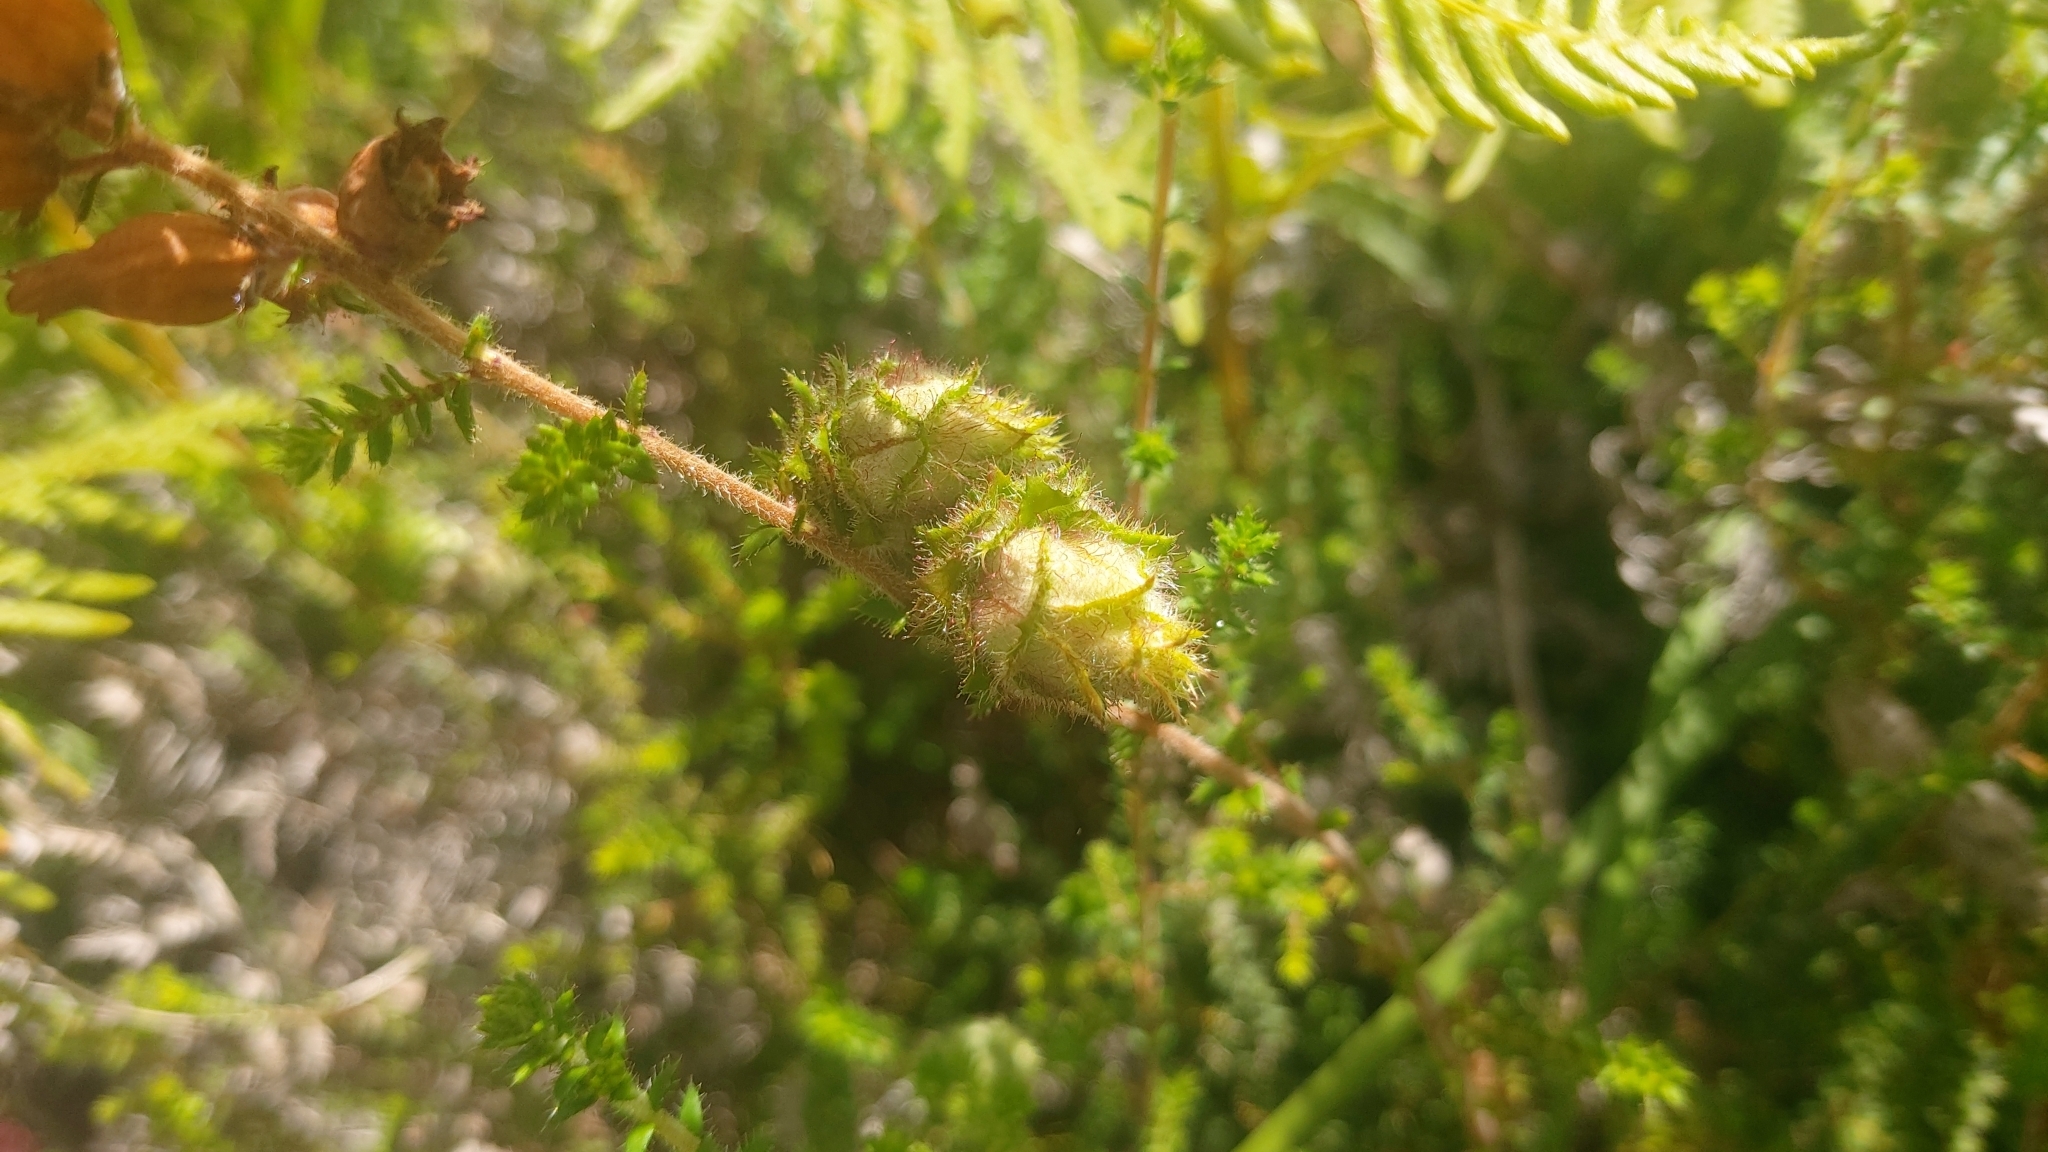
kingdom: Animalia
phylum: Arthropoda
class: Insecta
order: Diptera
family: Cecidomyiidae
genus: Dasineura
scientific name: Dasineura broteri
